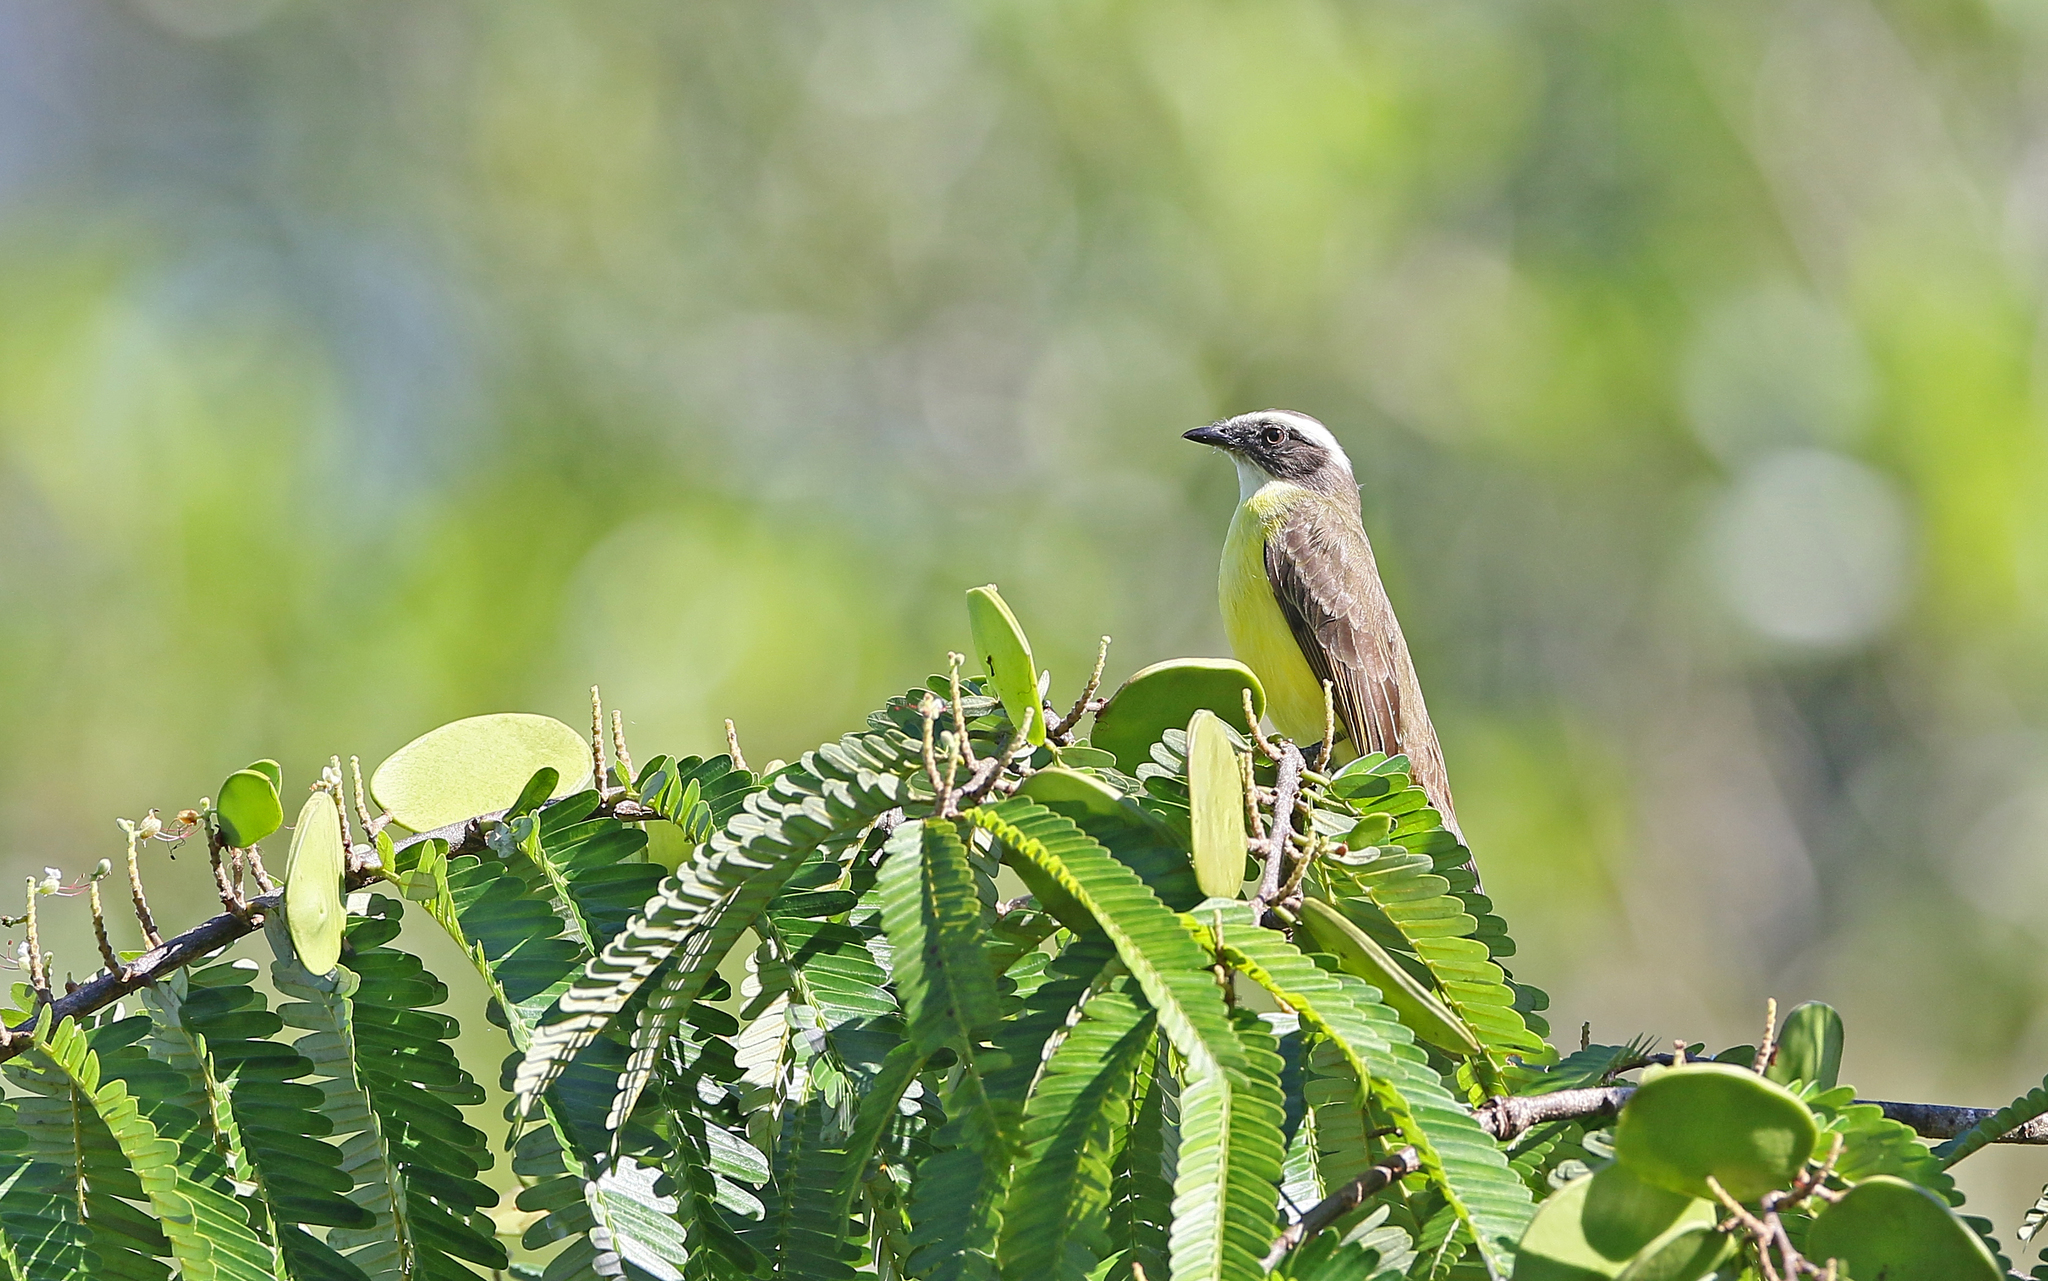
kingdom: Animalia
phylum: Chordata
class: Aves
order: Passeriformes
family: Tyrannidae
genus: Myiozetetes
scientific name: Myiozetetes similis
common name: Social flycatcher
